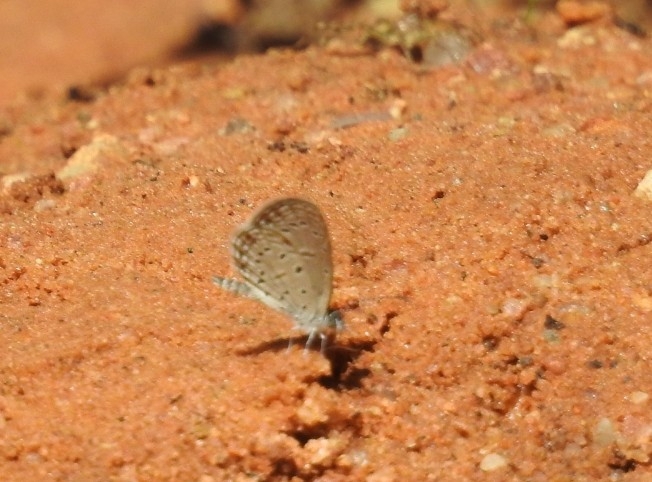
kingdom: Animalia
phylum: Arthropoda
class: Insecta
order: Lepidoptera
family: Lycaenidae
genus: Zizula
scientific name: Zizula hylax
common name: Gaika blue
